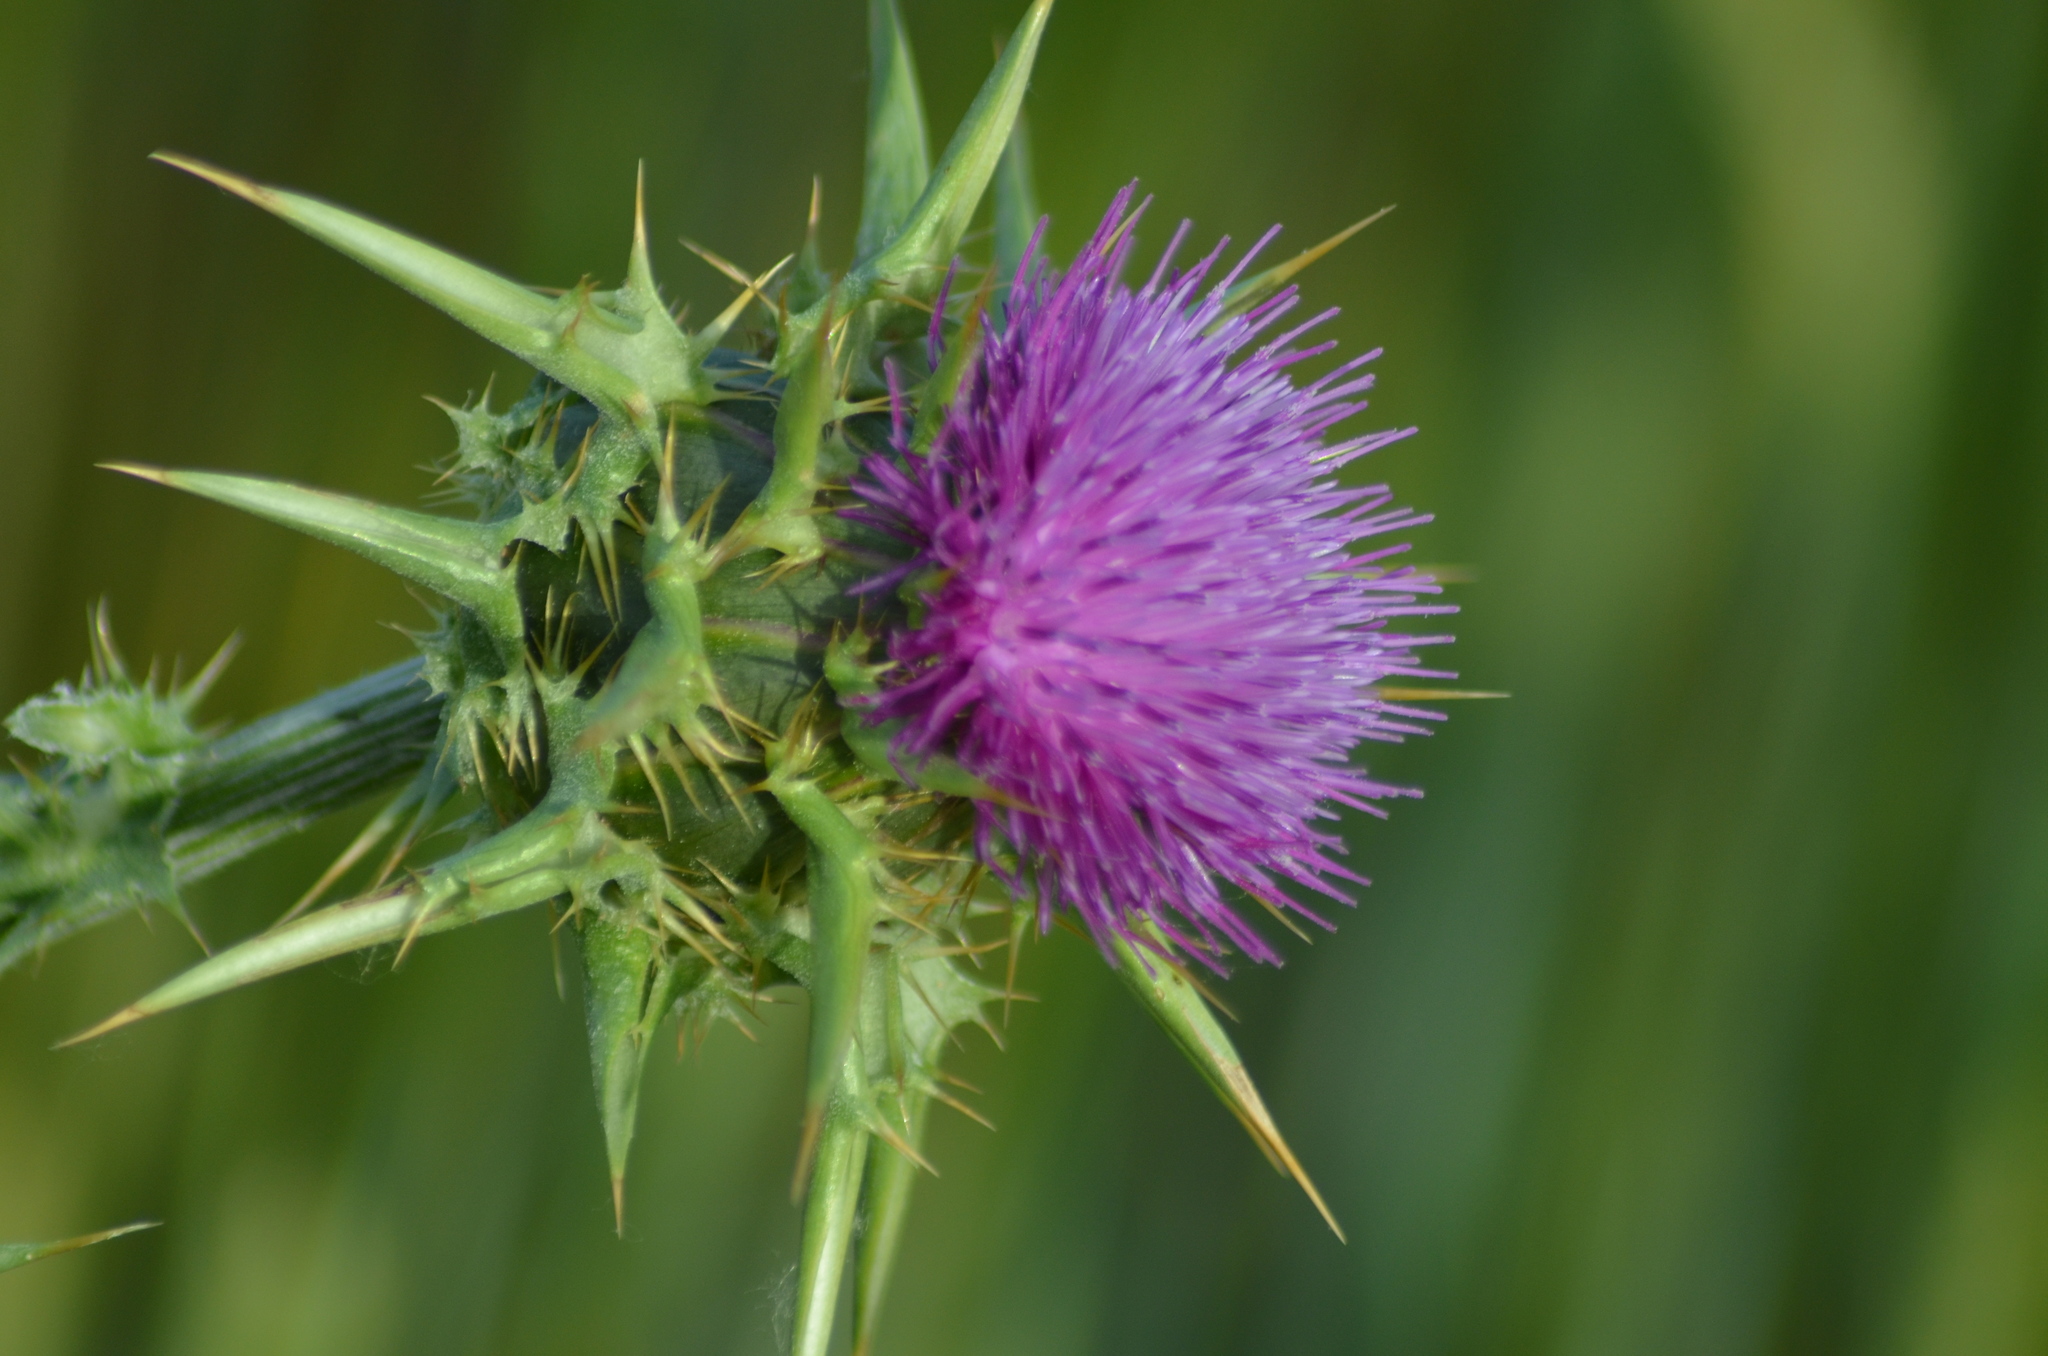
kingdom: Plantae
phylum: Tracheophyta
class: Magnoliopsida
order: Asterales
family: Asteraceae
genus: Silybum
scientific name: Silybum marianum
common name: Milk thistle
